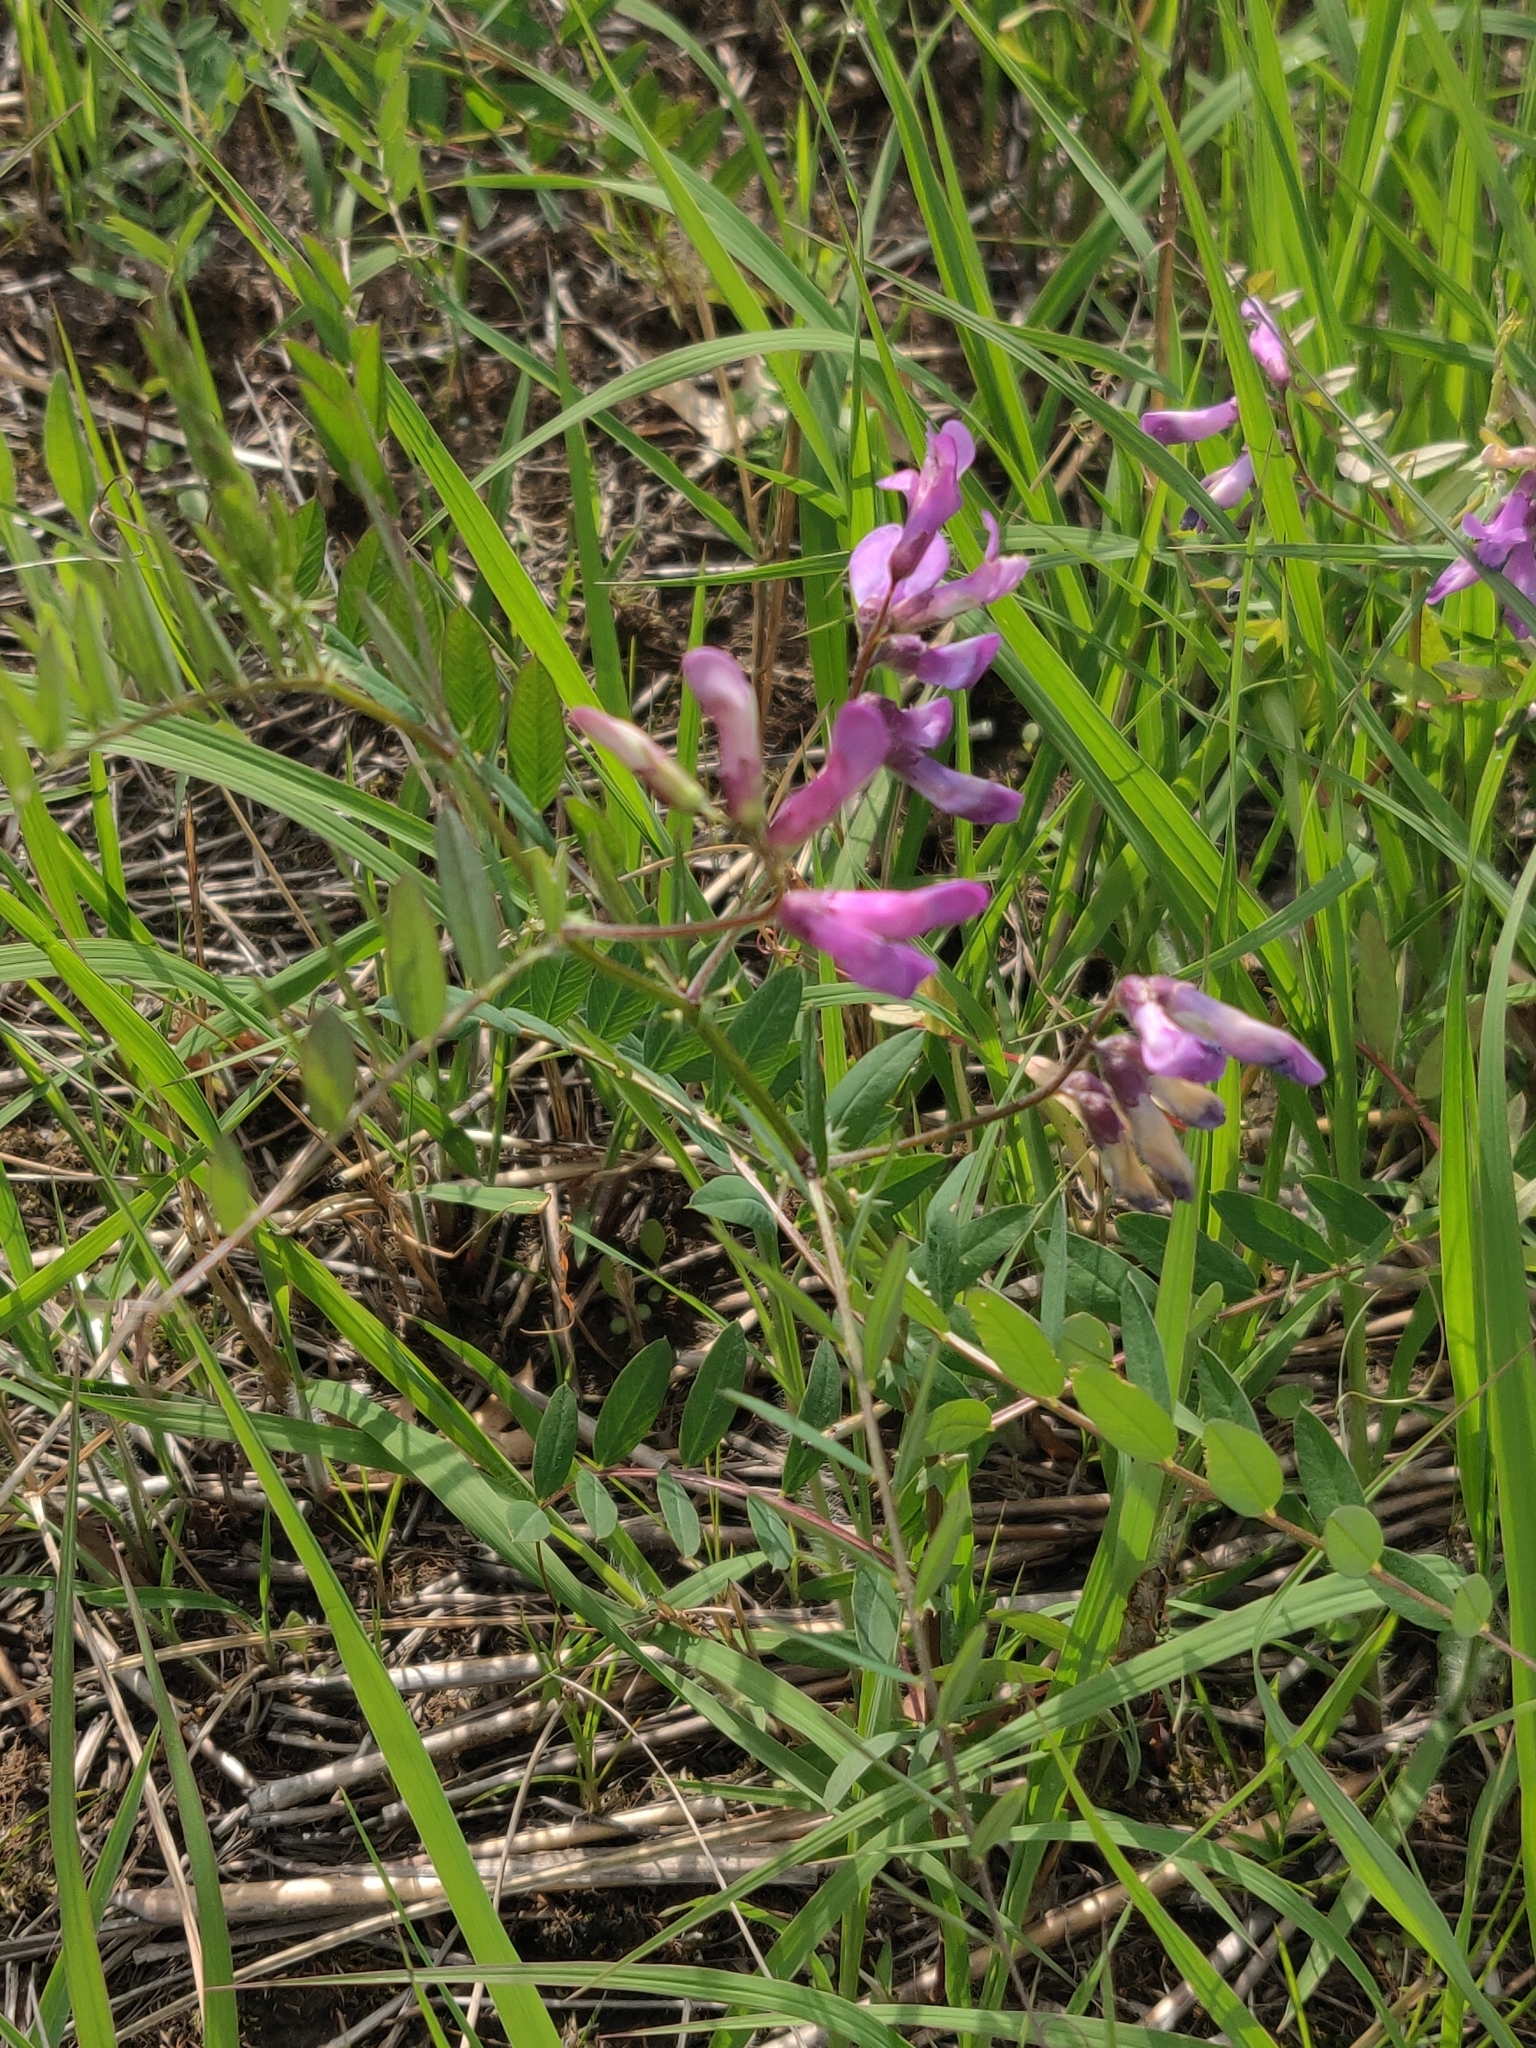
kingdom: Plantae
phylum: Tracheophyta
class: Magnoliopsida
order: Fabales
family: Fabaceae
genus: Vicia
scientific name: Vicia americana
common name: American vetch
